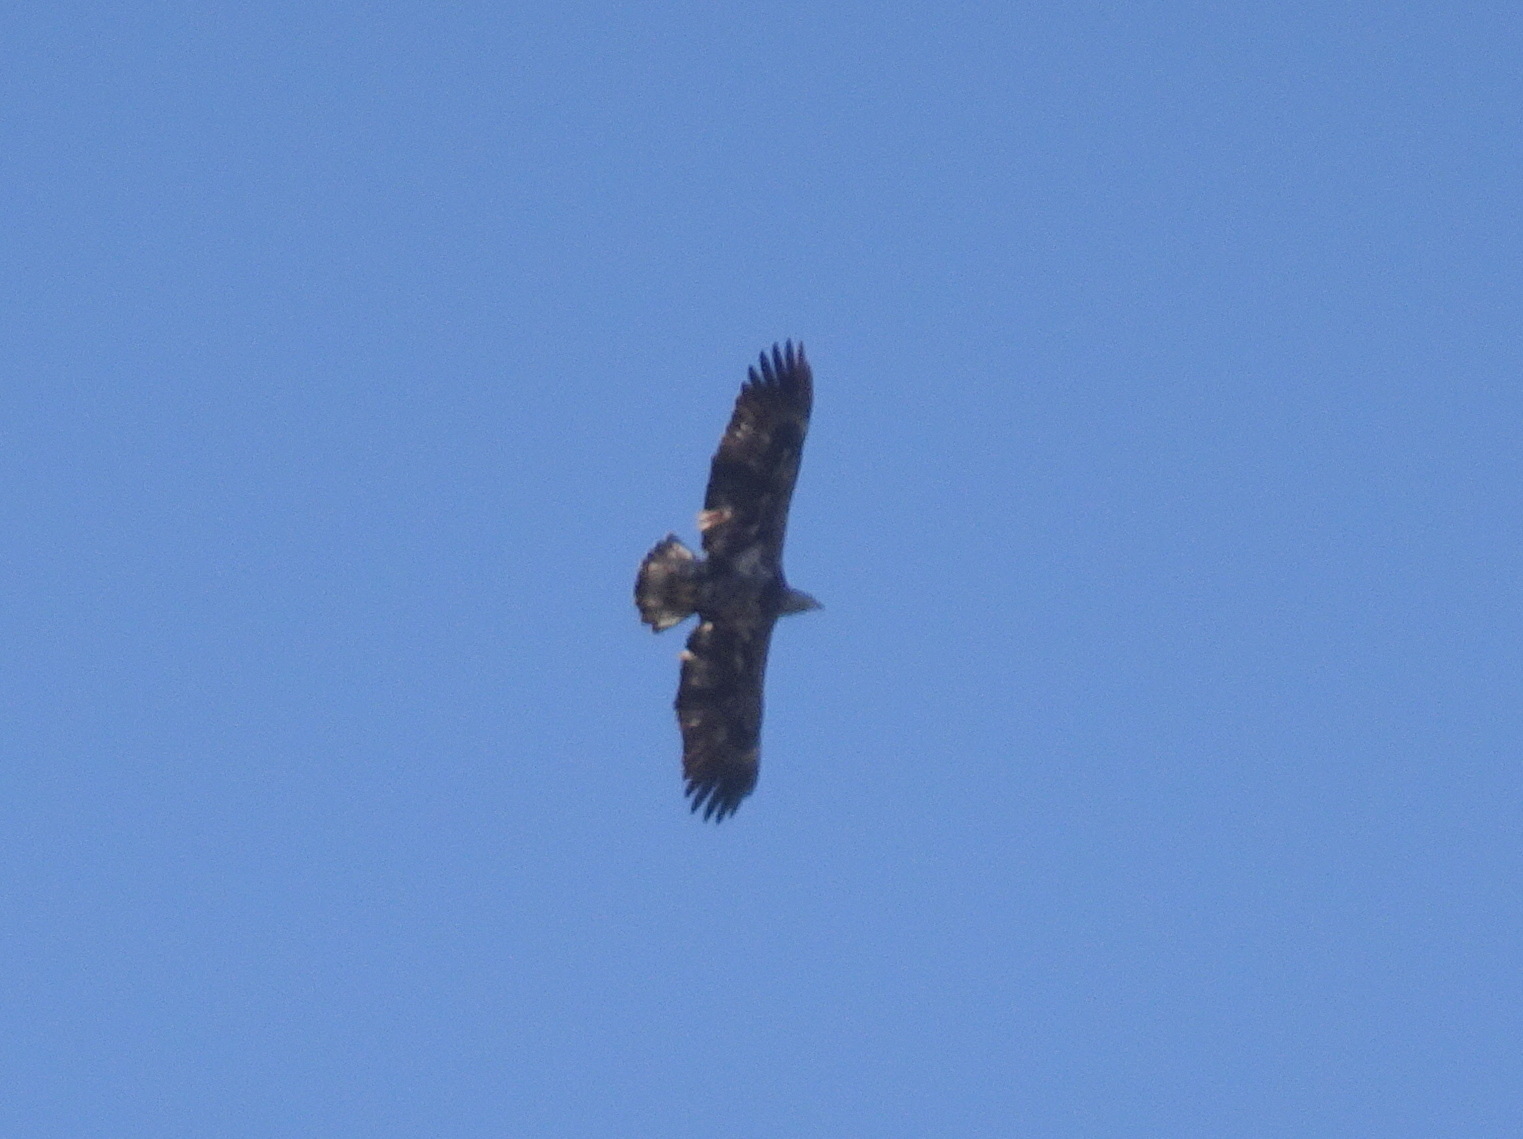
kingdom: Animalia
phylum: Chordata
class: Aves
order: Accipitriformes
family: Accipitridae
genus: Haliaeetus
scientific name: Haliaeetus leucocephalus
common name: Bald eagle
